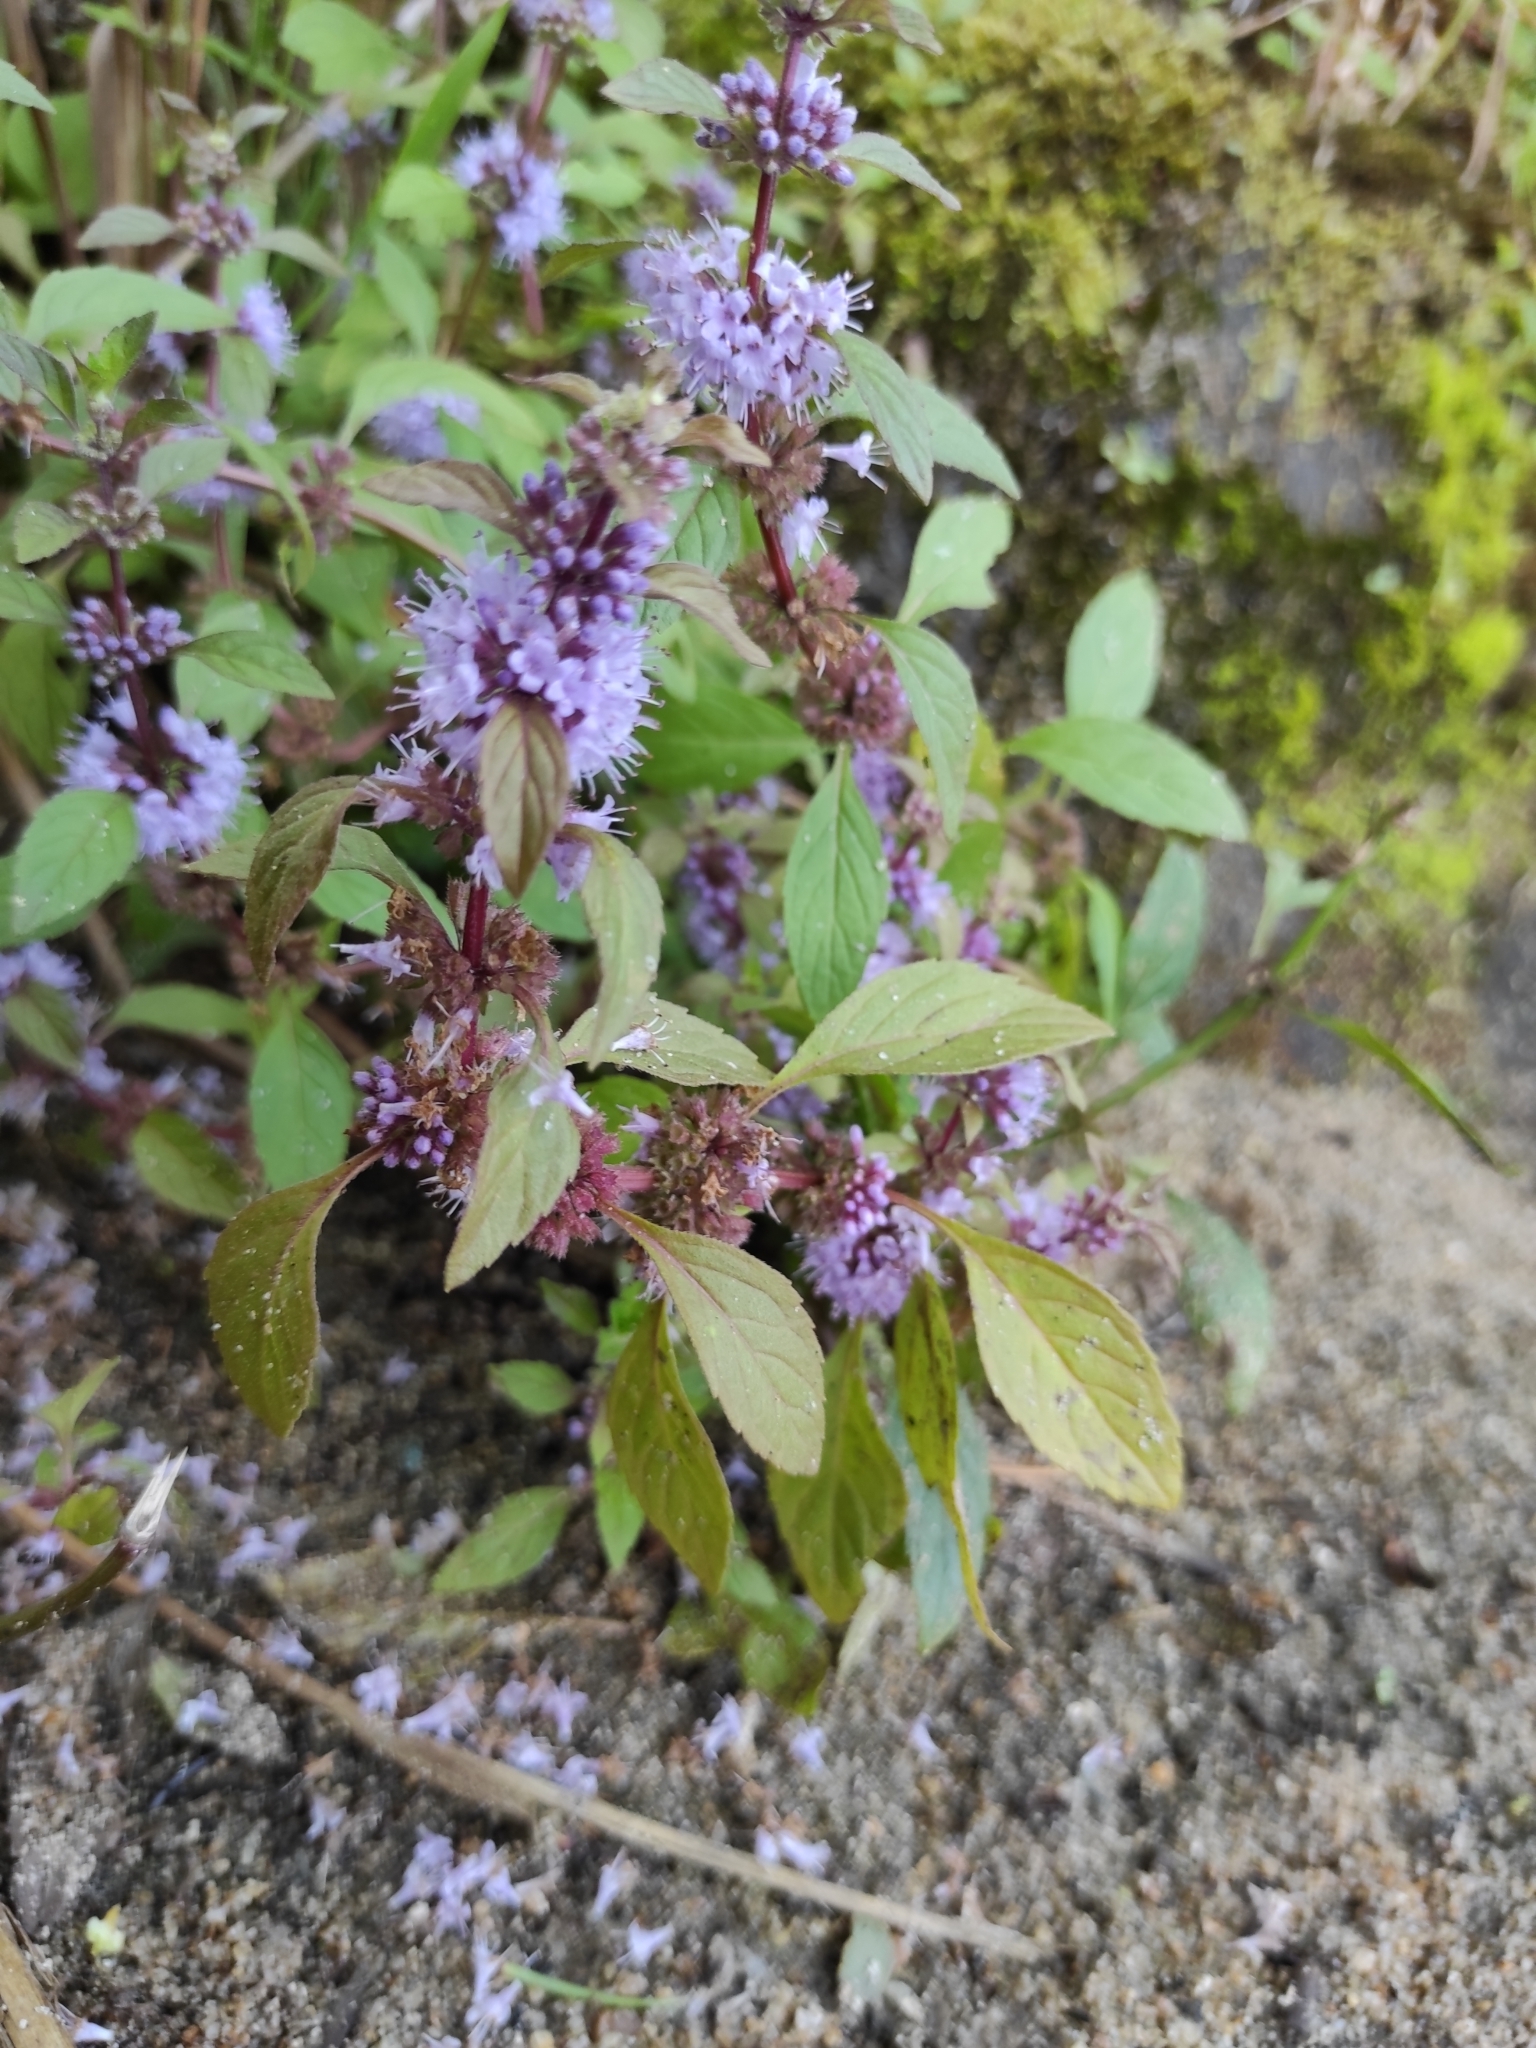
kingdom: Plantae
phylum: Tracheophyta
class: Magnoliopsida
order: Lamiales
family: Lamiaceae
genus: Mentha
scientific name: Mentha arvensis
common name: Corn mint
